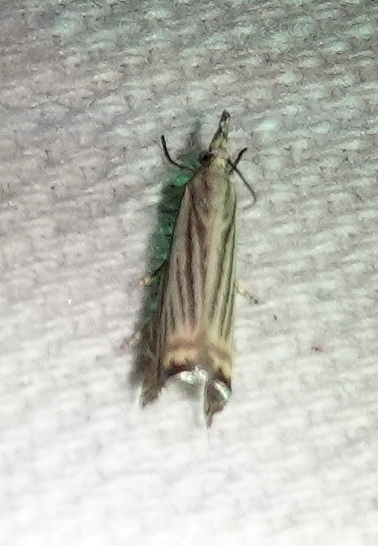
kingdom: Animalia
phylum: Arthropoda
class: Insecta
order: Lepidoptera
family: Crambidae
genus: Chrysoteuchia
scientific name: Chrysoteuchia topiarius
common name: Topiary grass-veneer
